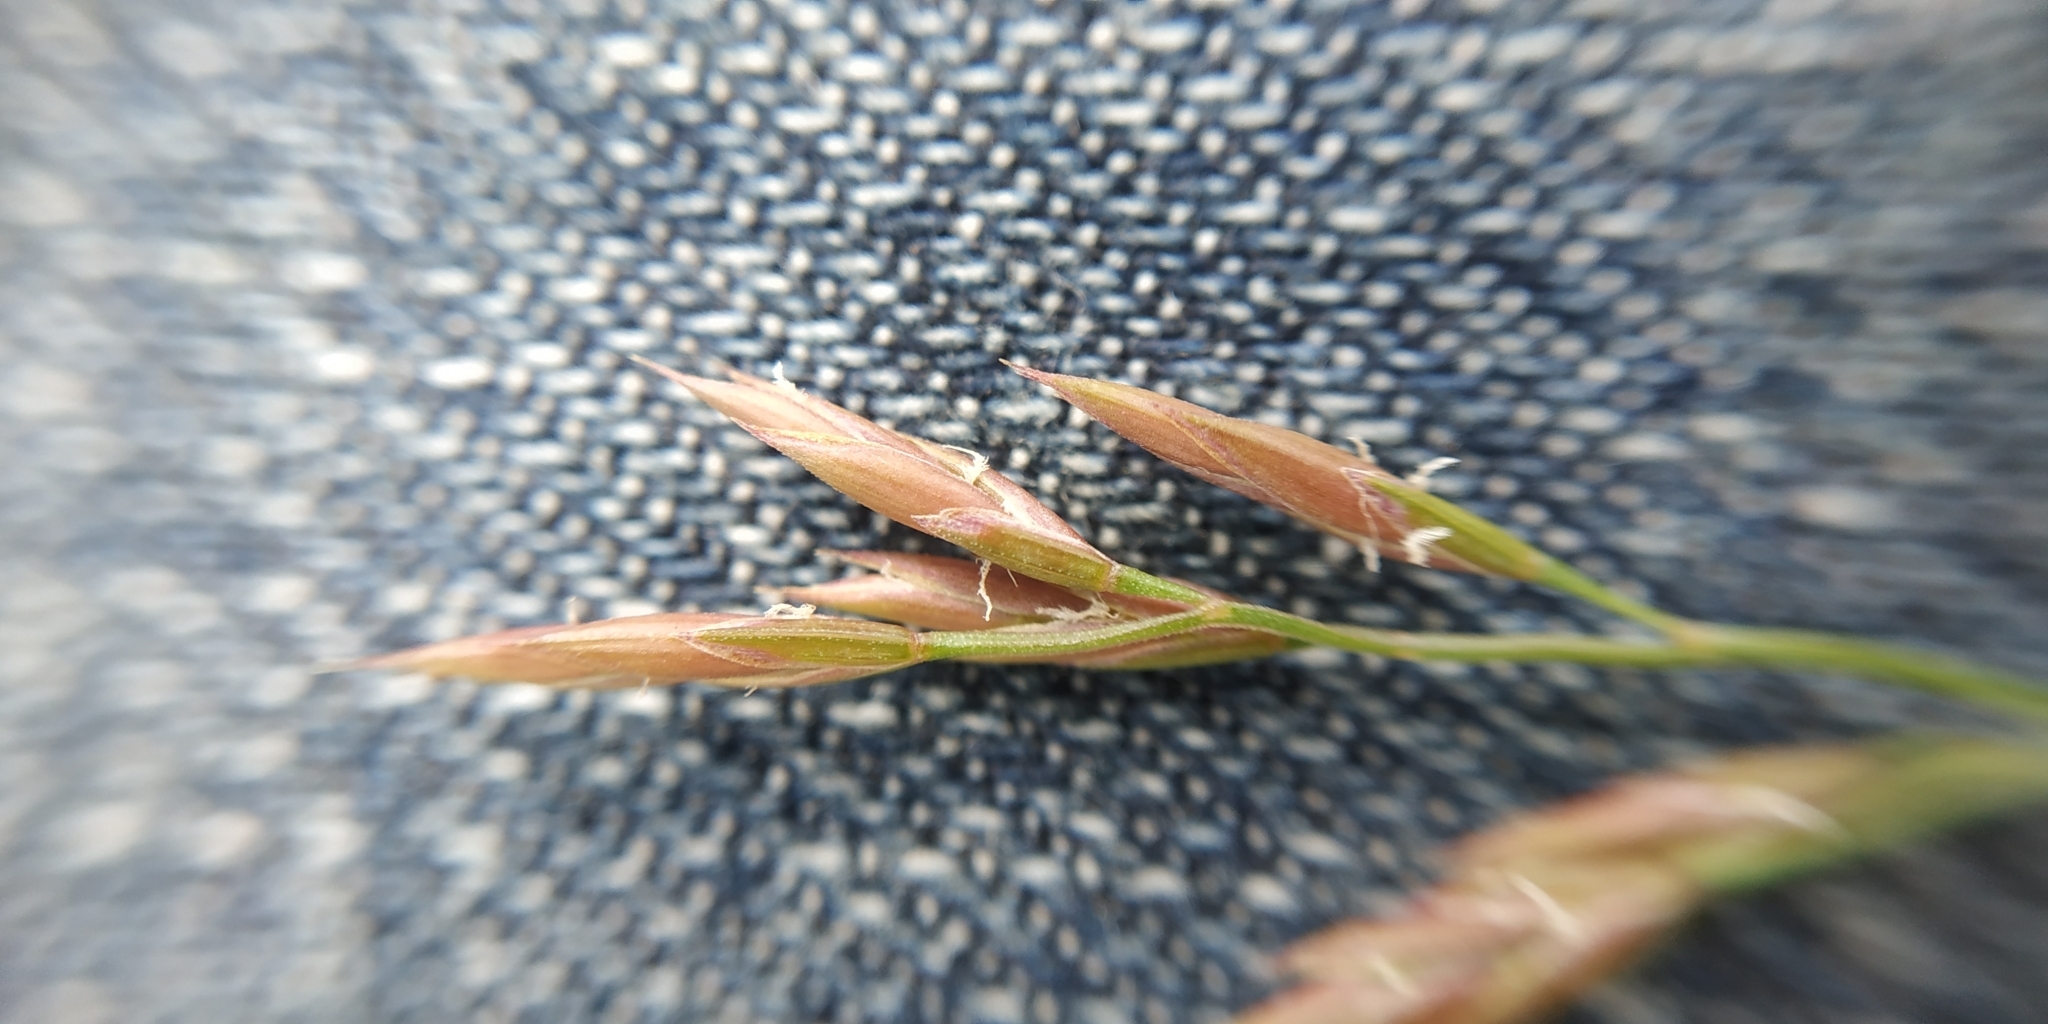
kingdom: Plantae
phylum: Tracheophyta
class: Liliopsida
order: Poales
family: Poaceae
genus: Festuca
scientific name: Festuca rubra
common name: Red fescue
